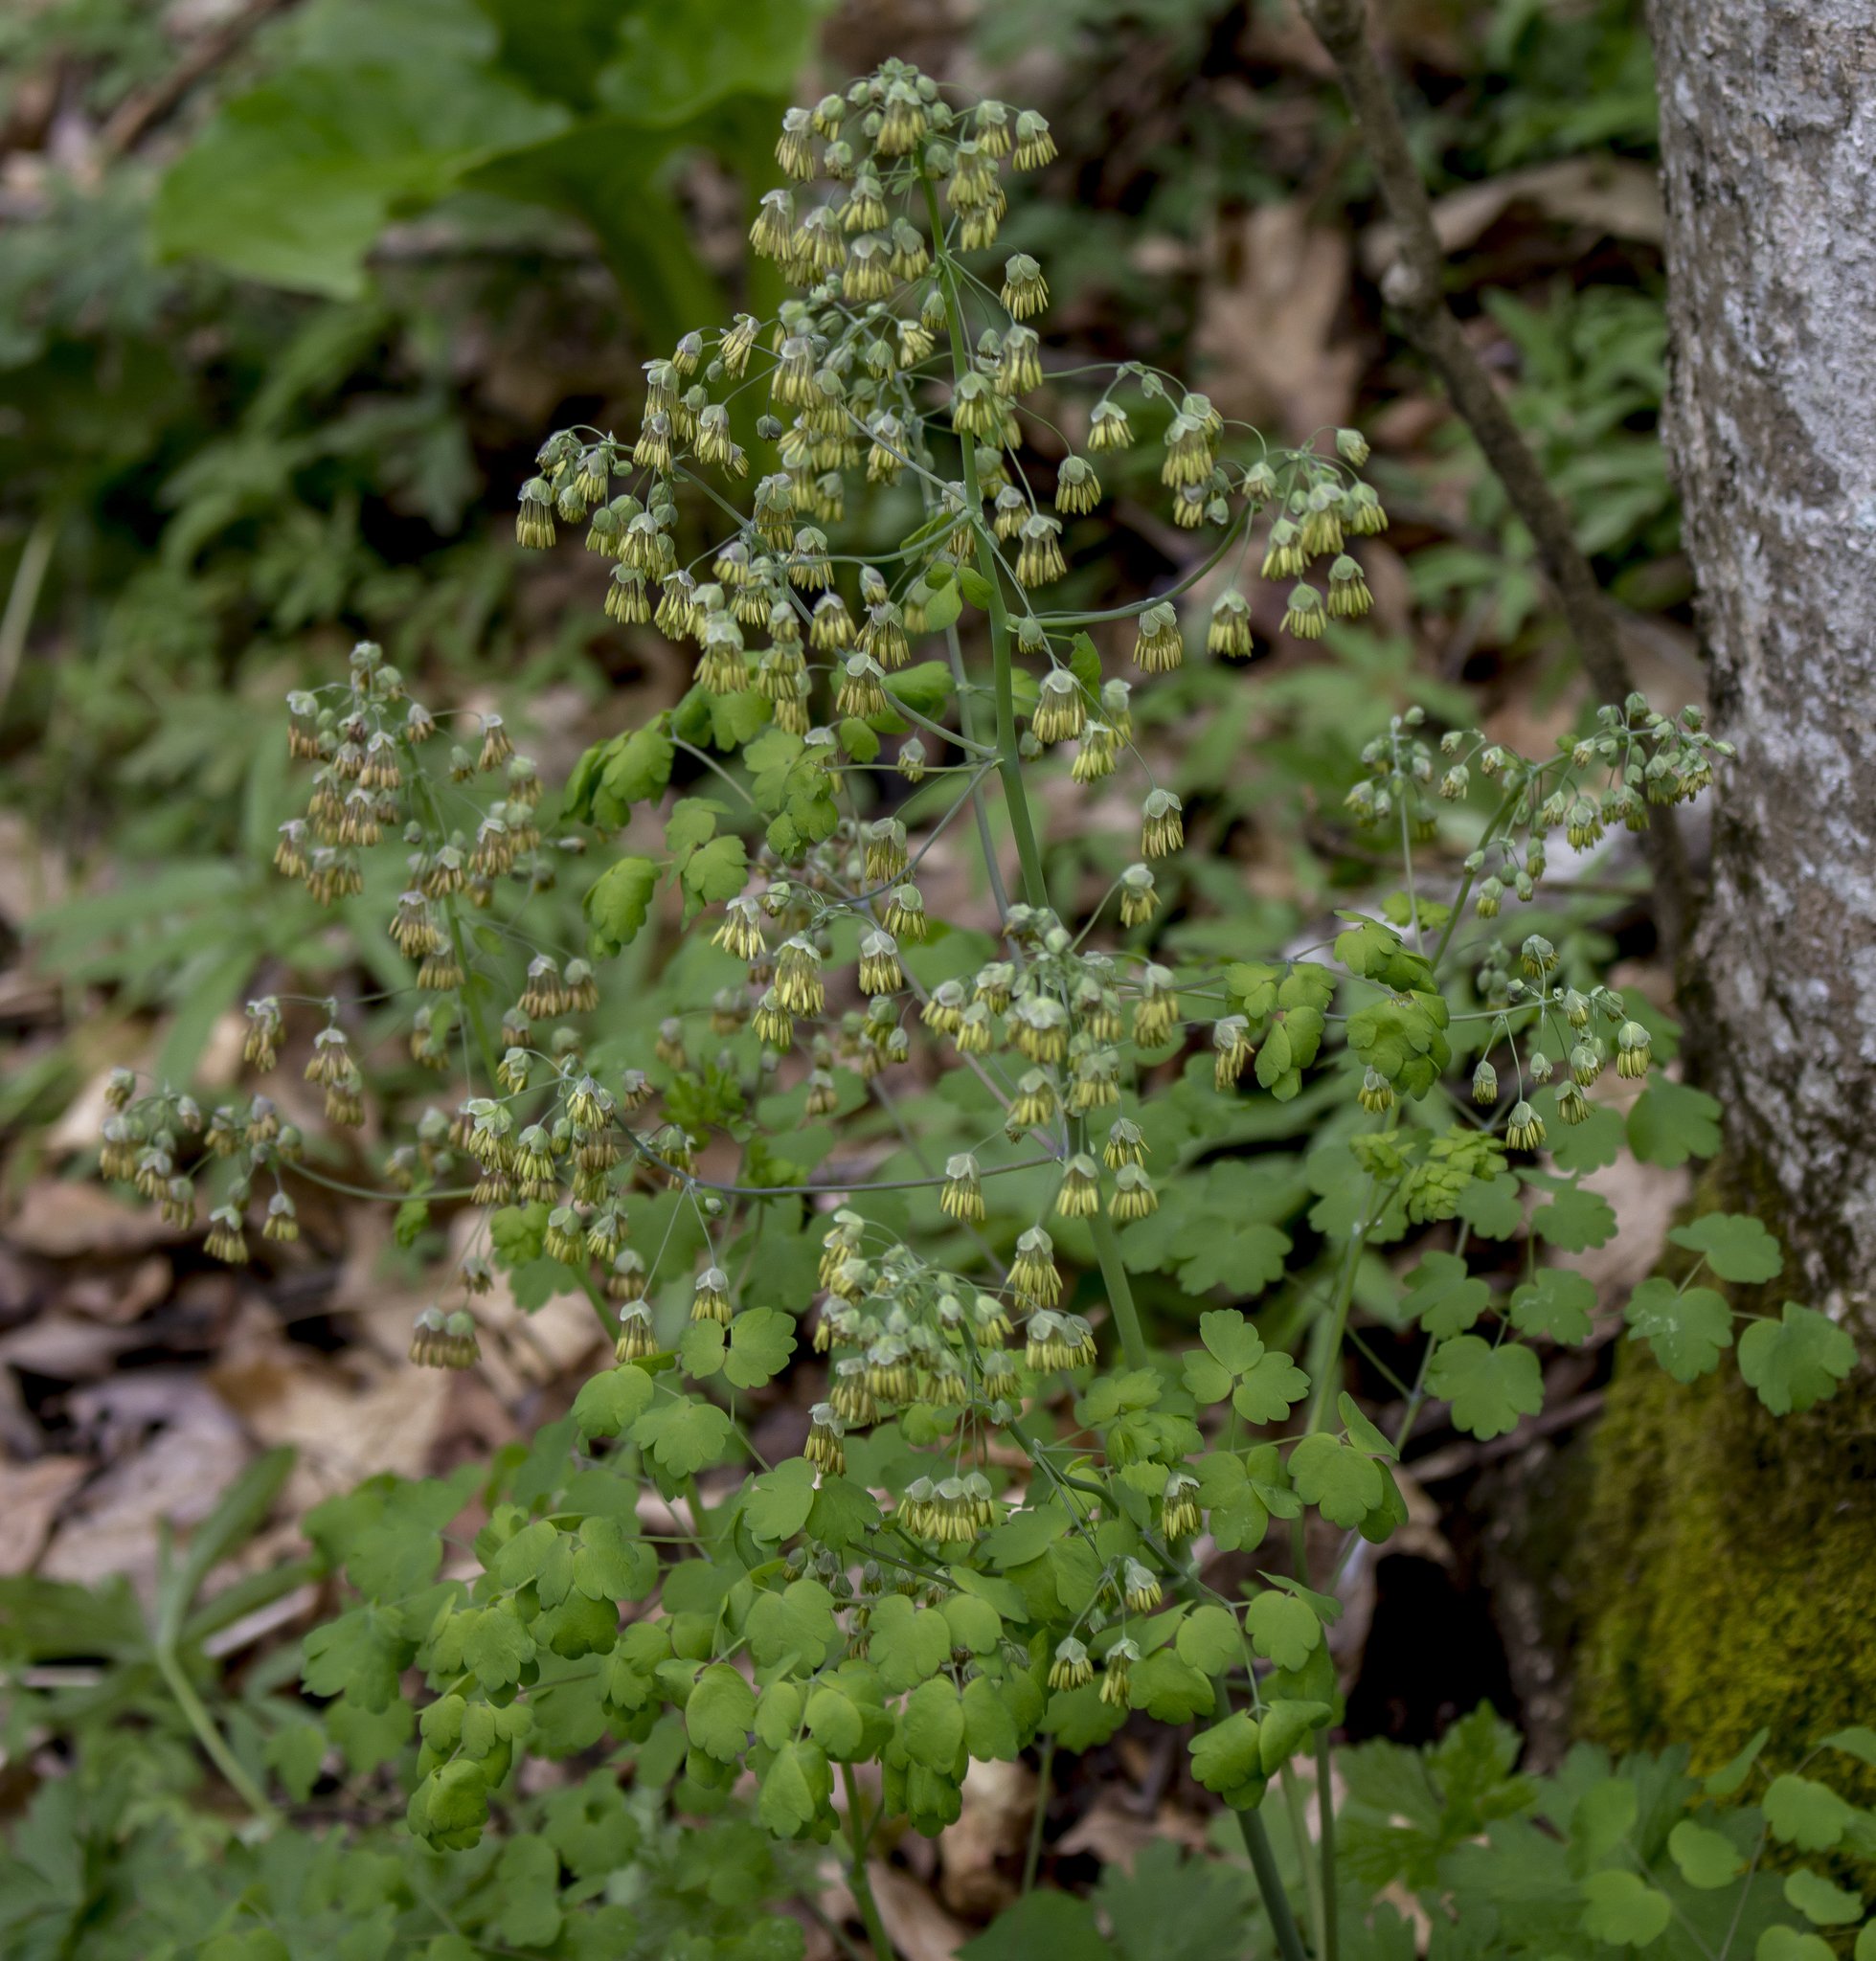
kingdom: Plantae
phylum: Tracheophyta
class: Magnoliopsida
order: Ranunculales
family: Ranunculaceae
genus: Thalictrum
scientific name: Thalictrum dioicum
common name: Early meadow-rue
